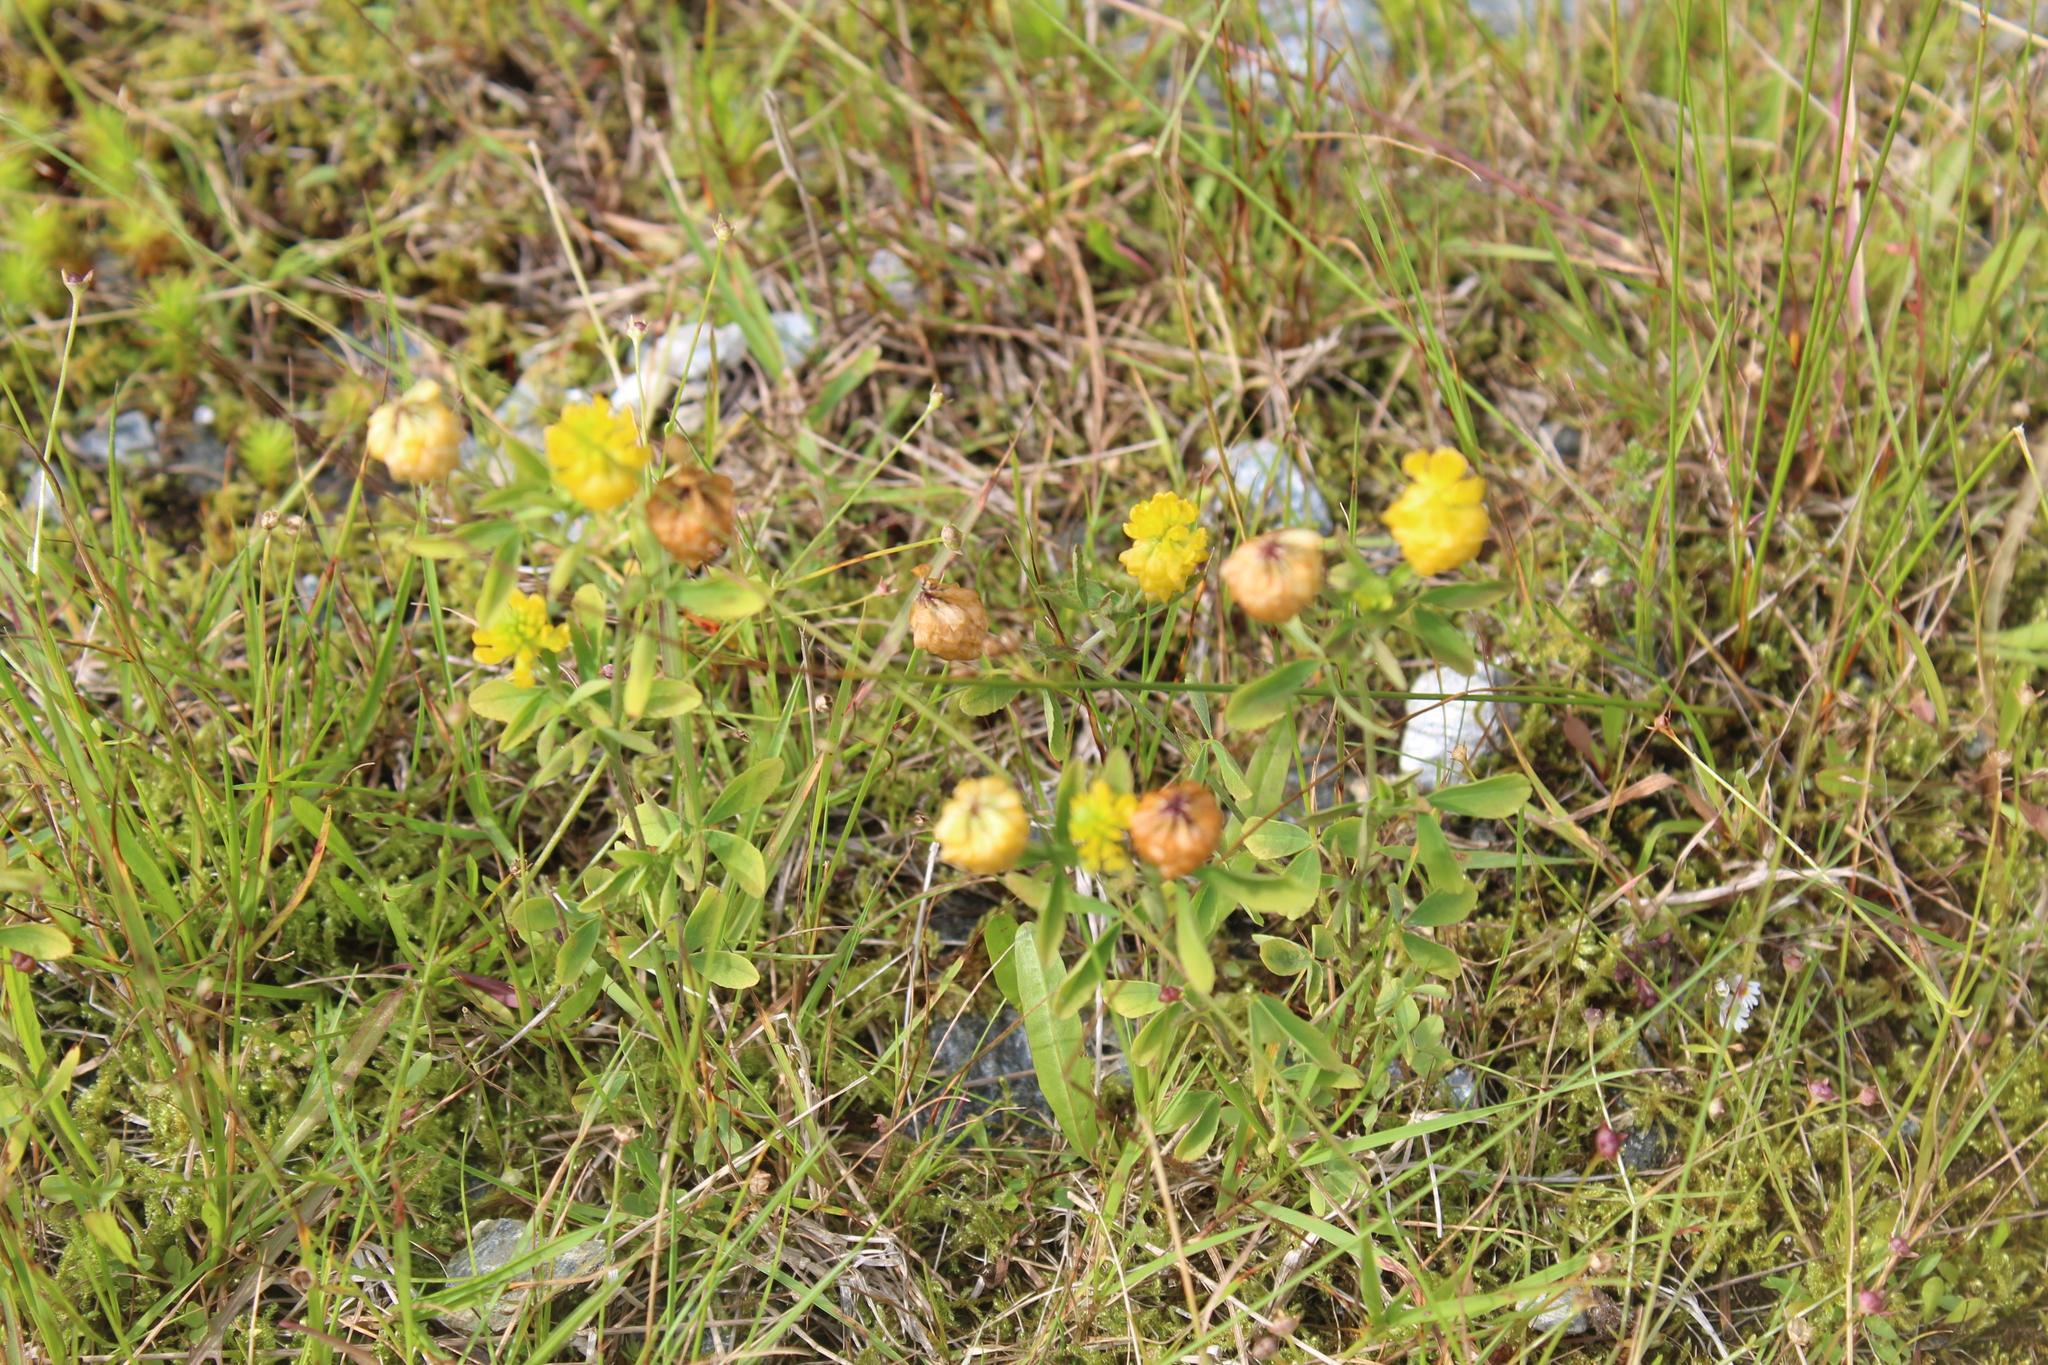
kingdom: Plantae
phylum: Tracheophyta
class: Magnoliopsida
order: Fabales
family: Fabaceae
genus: Trifolium
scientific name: Trifolium aureum
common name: Golden clover
